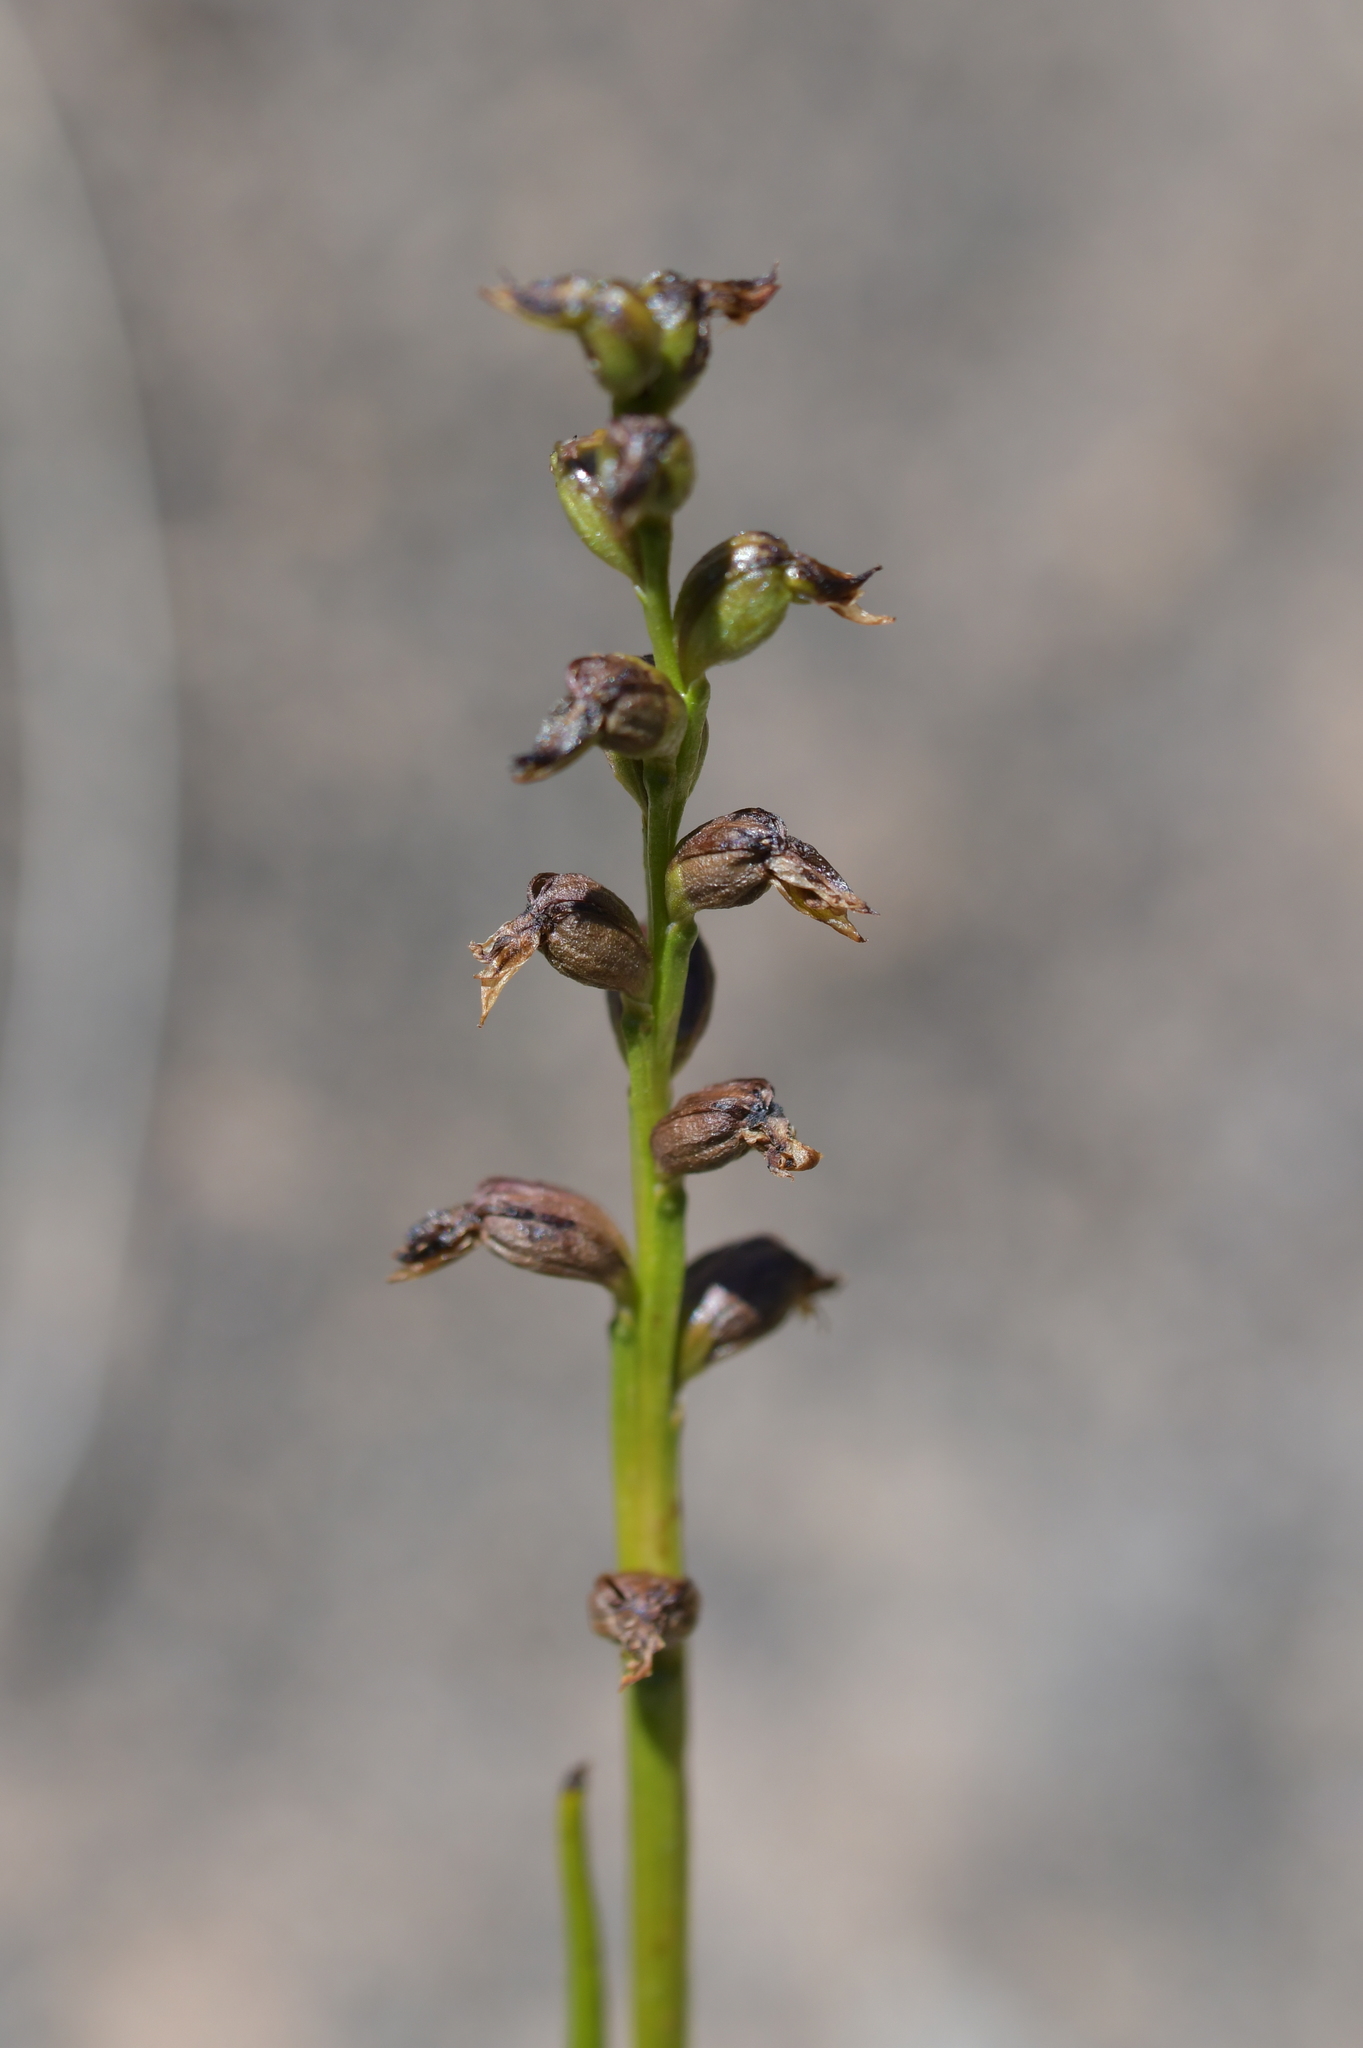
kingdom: Plantae
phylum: Tracheophyta
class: Liliopsida
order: Asparagales
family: Orchidaceae
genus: Prasophyllum
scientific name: Prasophyllum colensoi
